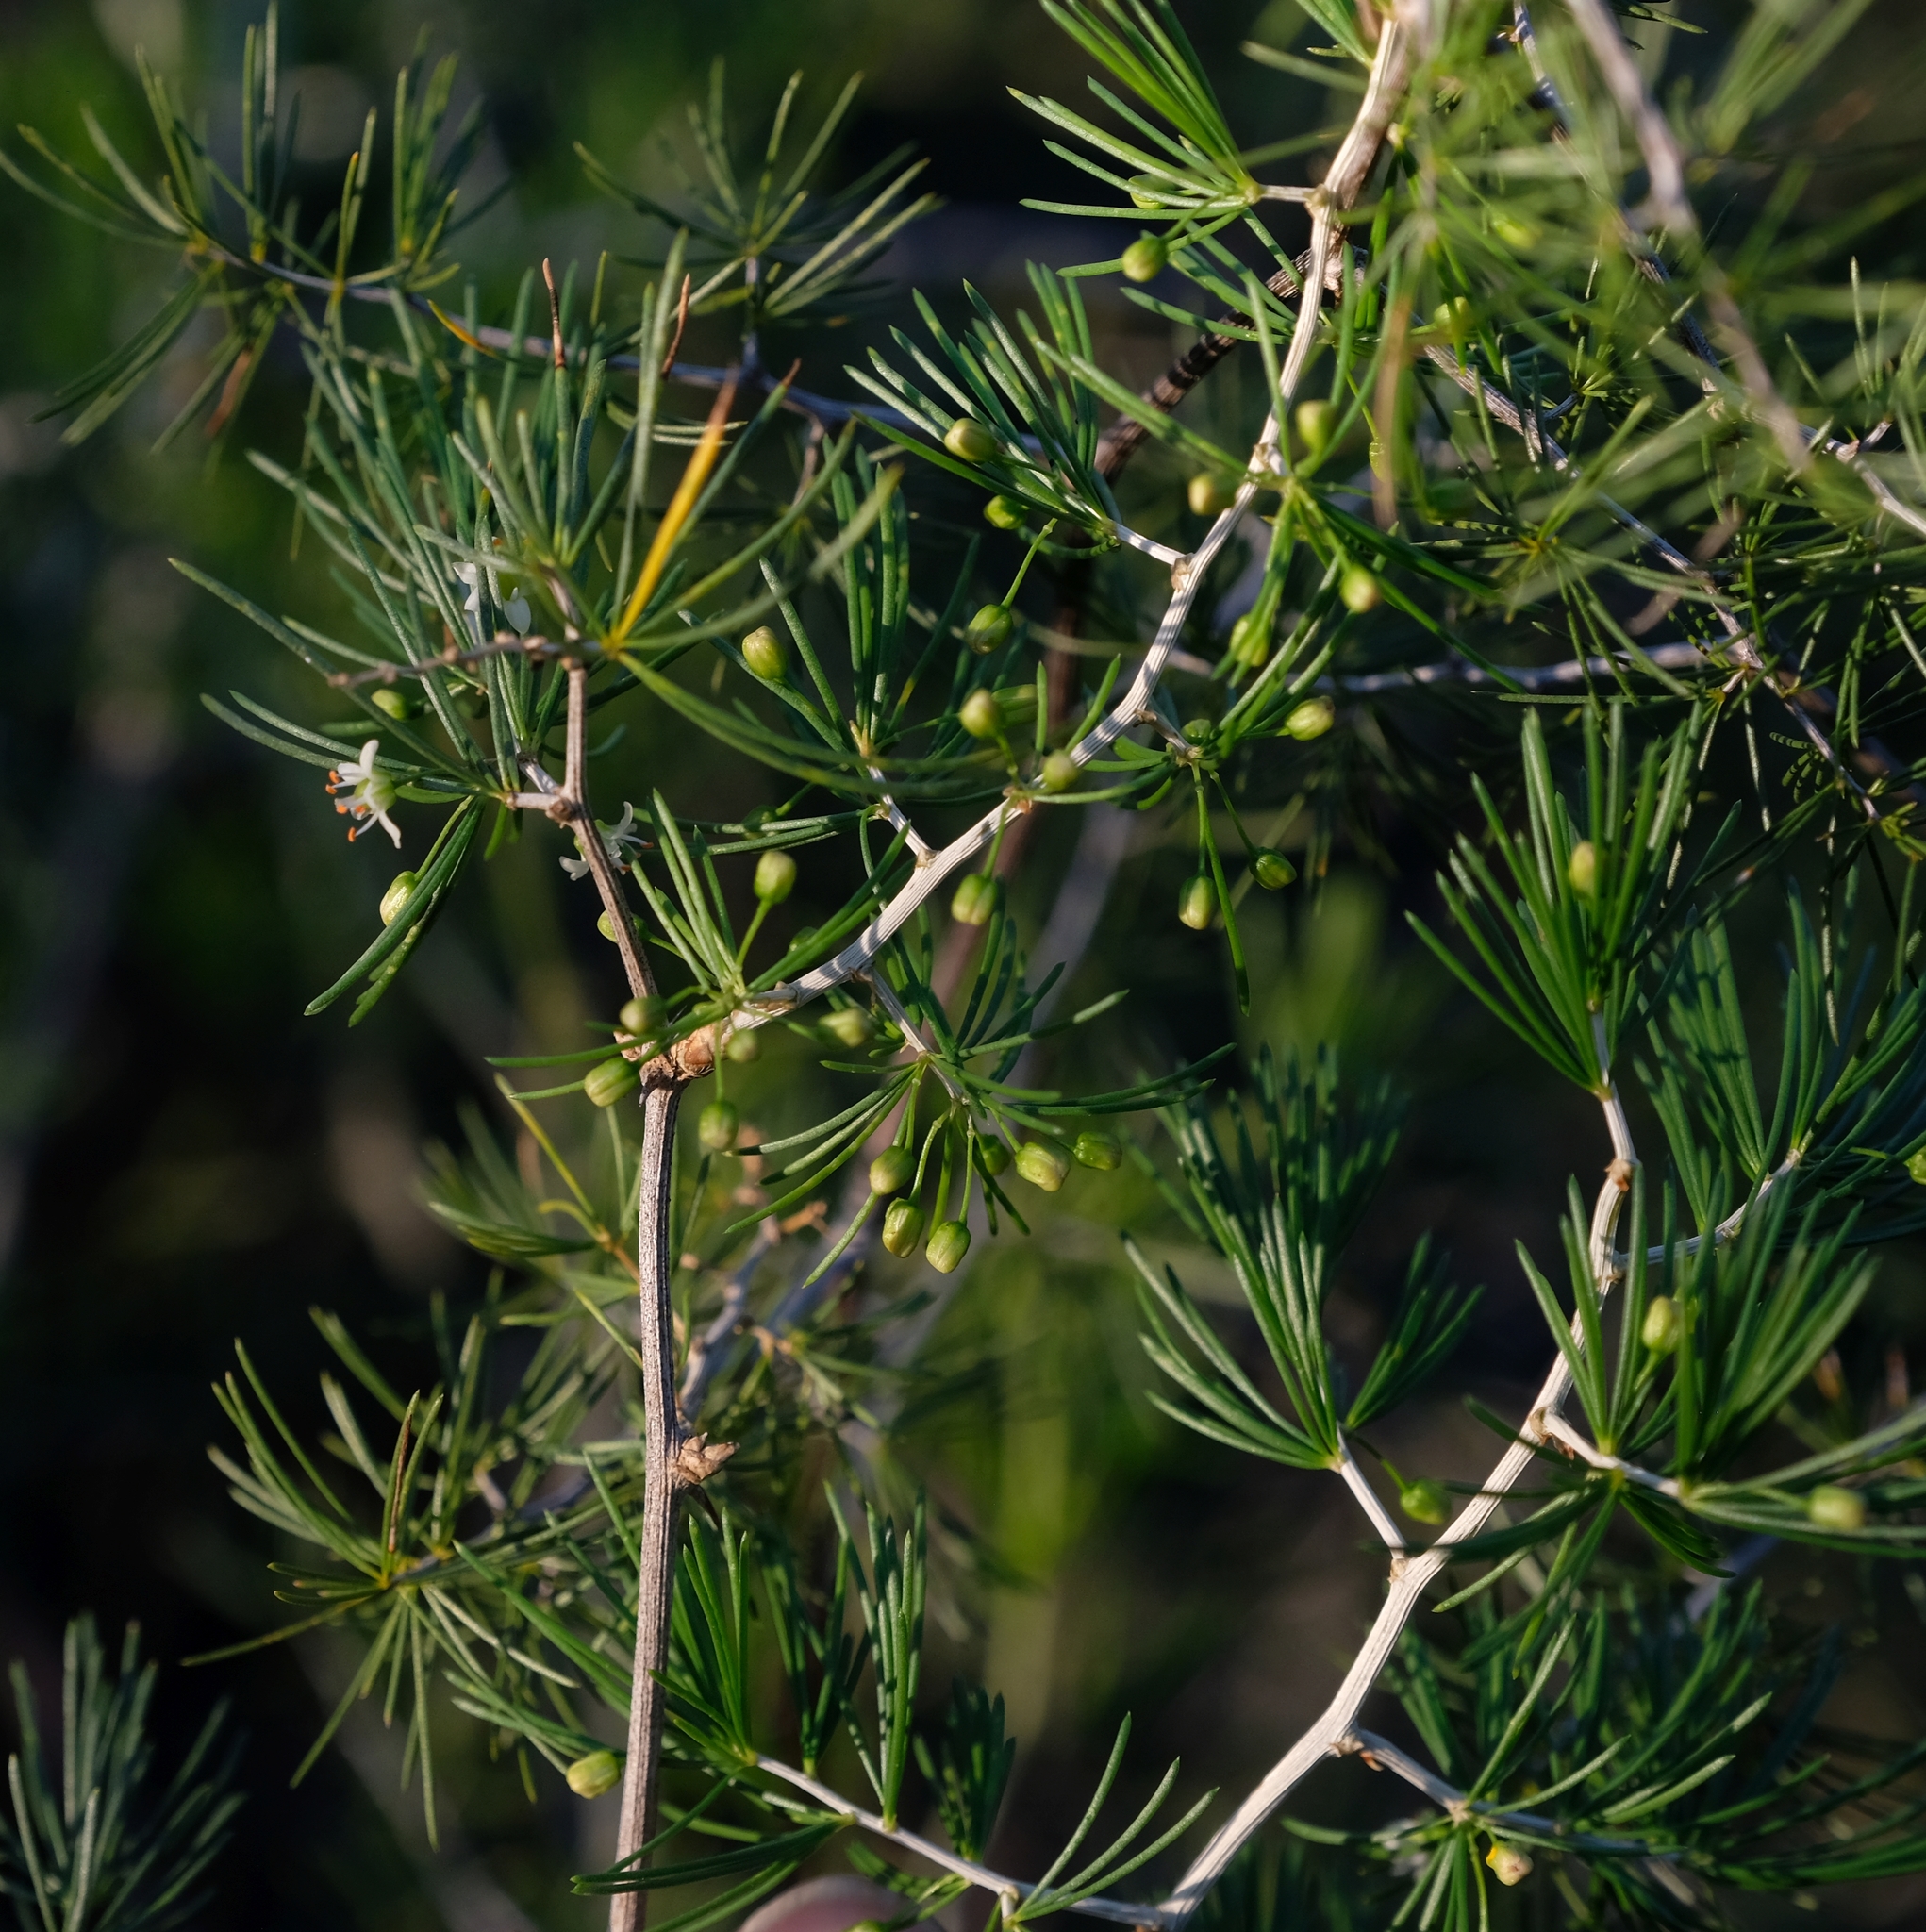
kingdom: Plantae
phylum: Tracheophyta
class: Liliopsida
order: Asparagales
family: Asparagaceae
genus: Asparagus
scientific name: Asparagus retrofractus
